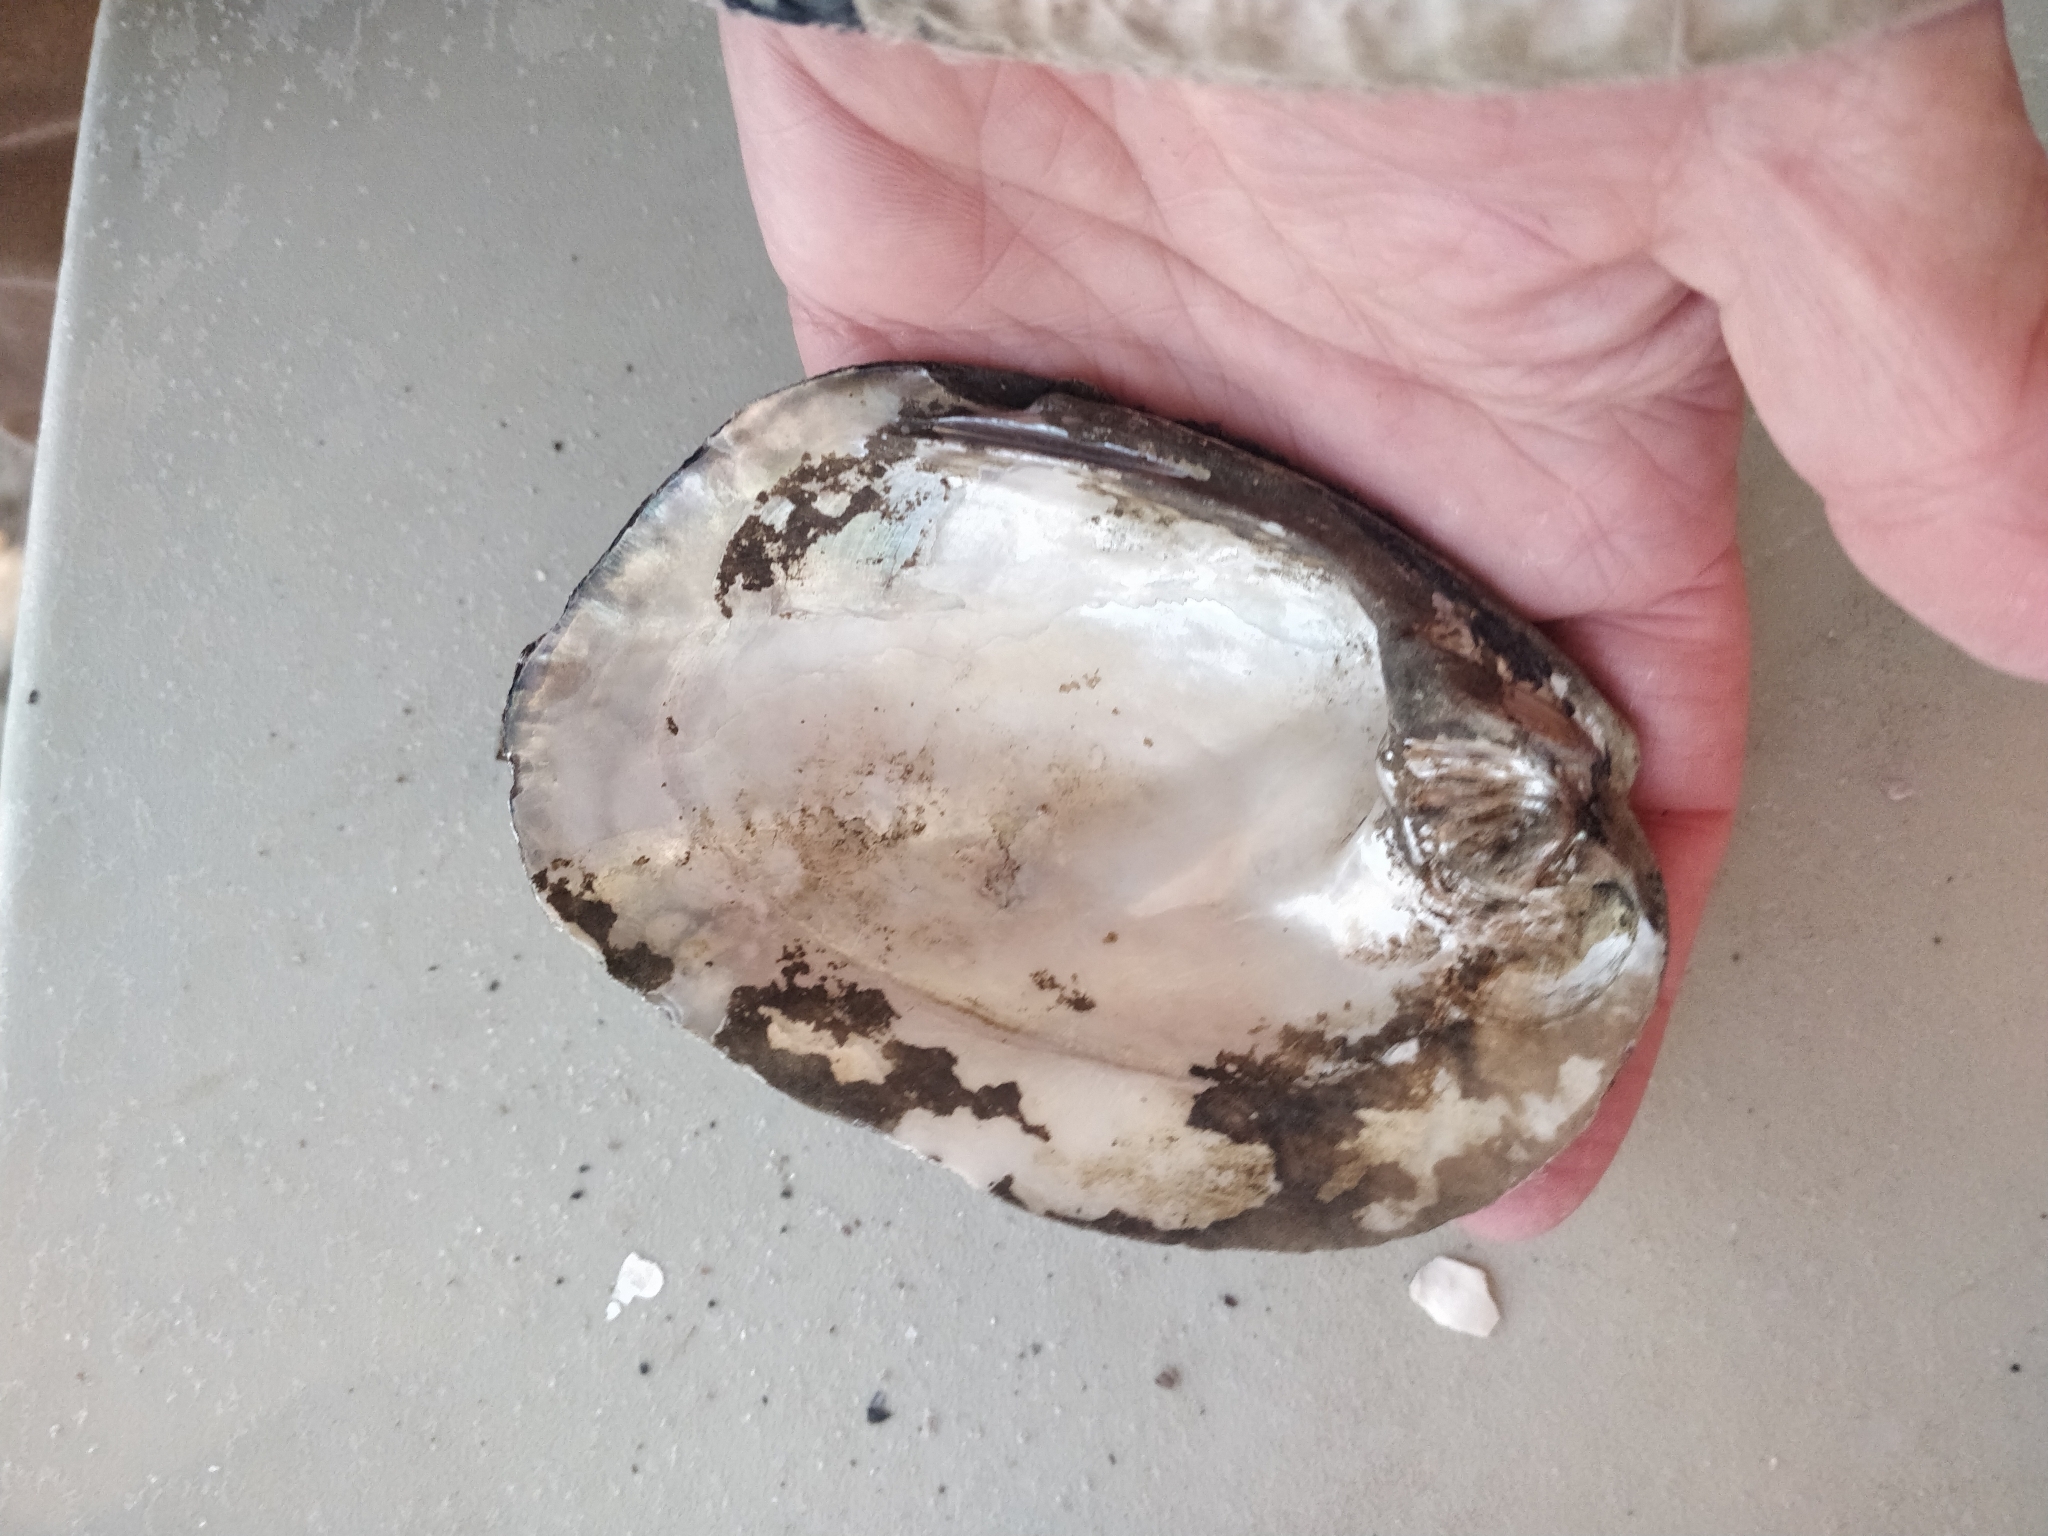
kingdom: Animalia
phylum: Mollusca
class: Bivalvia
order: Unionida
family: Unionidae
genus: Amblema
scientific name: Amblema plicata
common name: Threeridge
